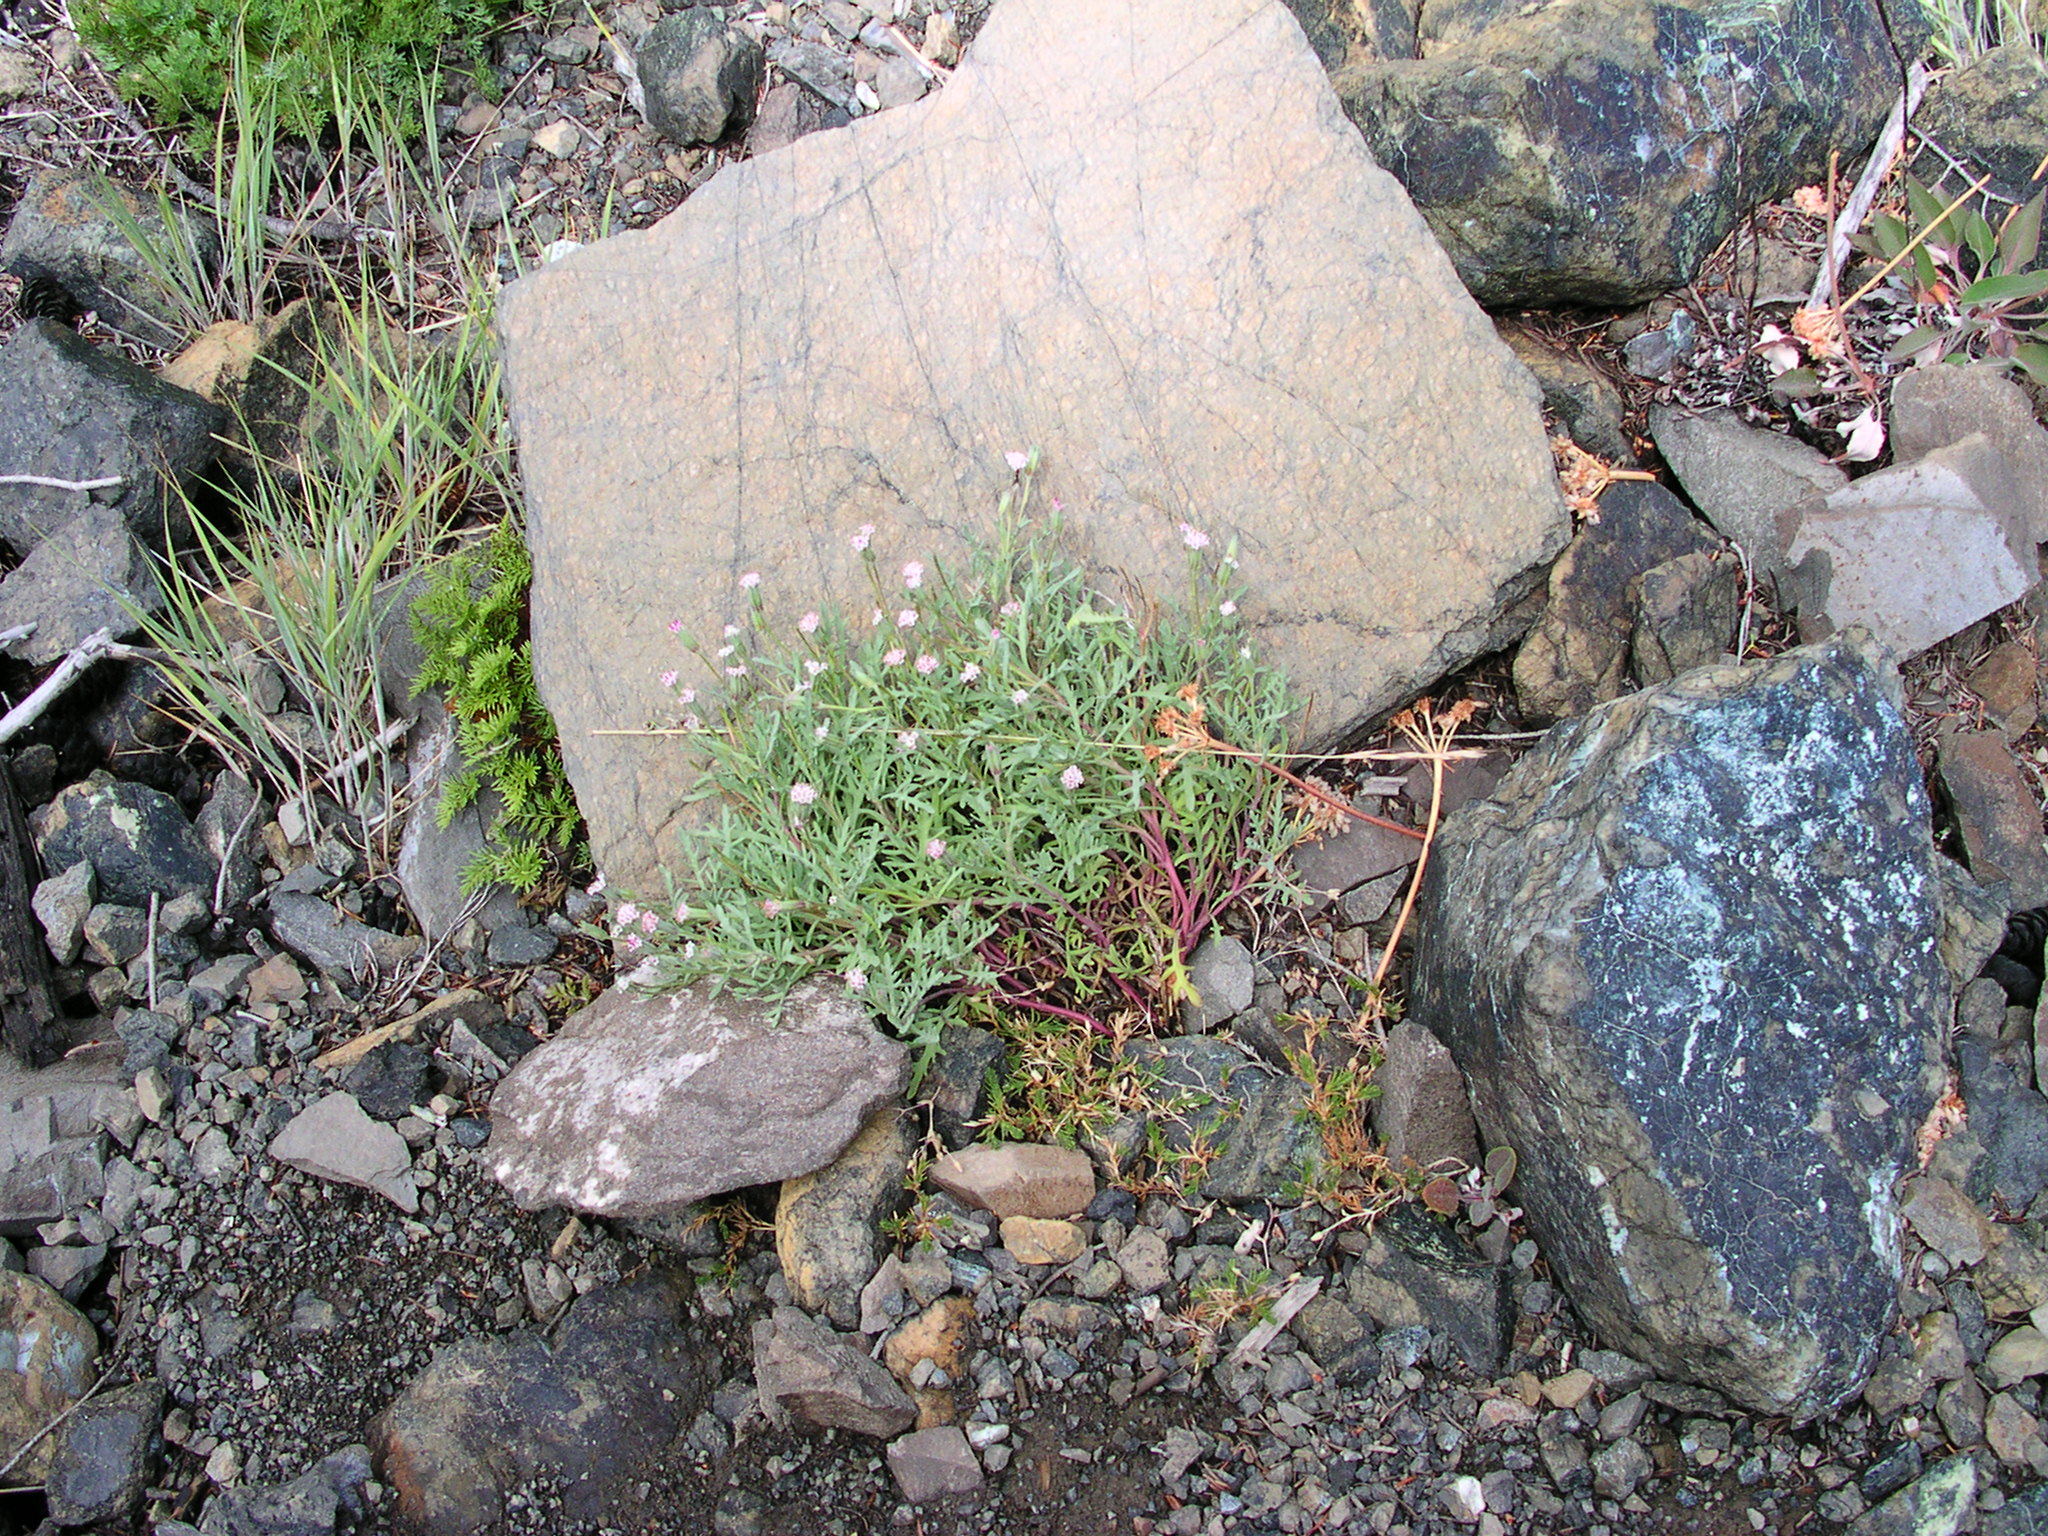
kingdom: Plantae
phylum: Tracheophyta
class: Magnoliopsida
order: Asterales
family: Asteraceae
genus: Chaenactis
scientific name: Chaenactis thompsonii
